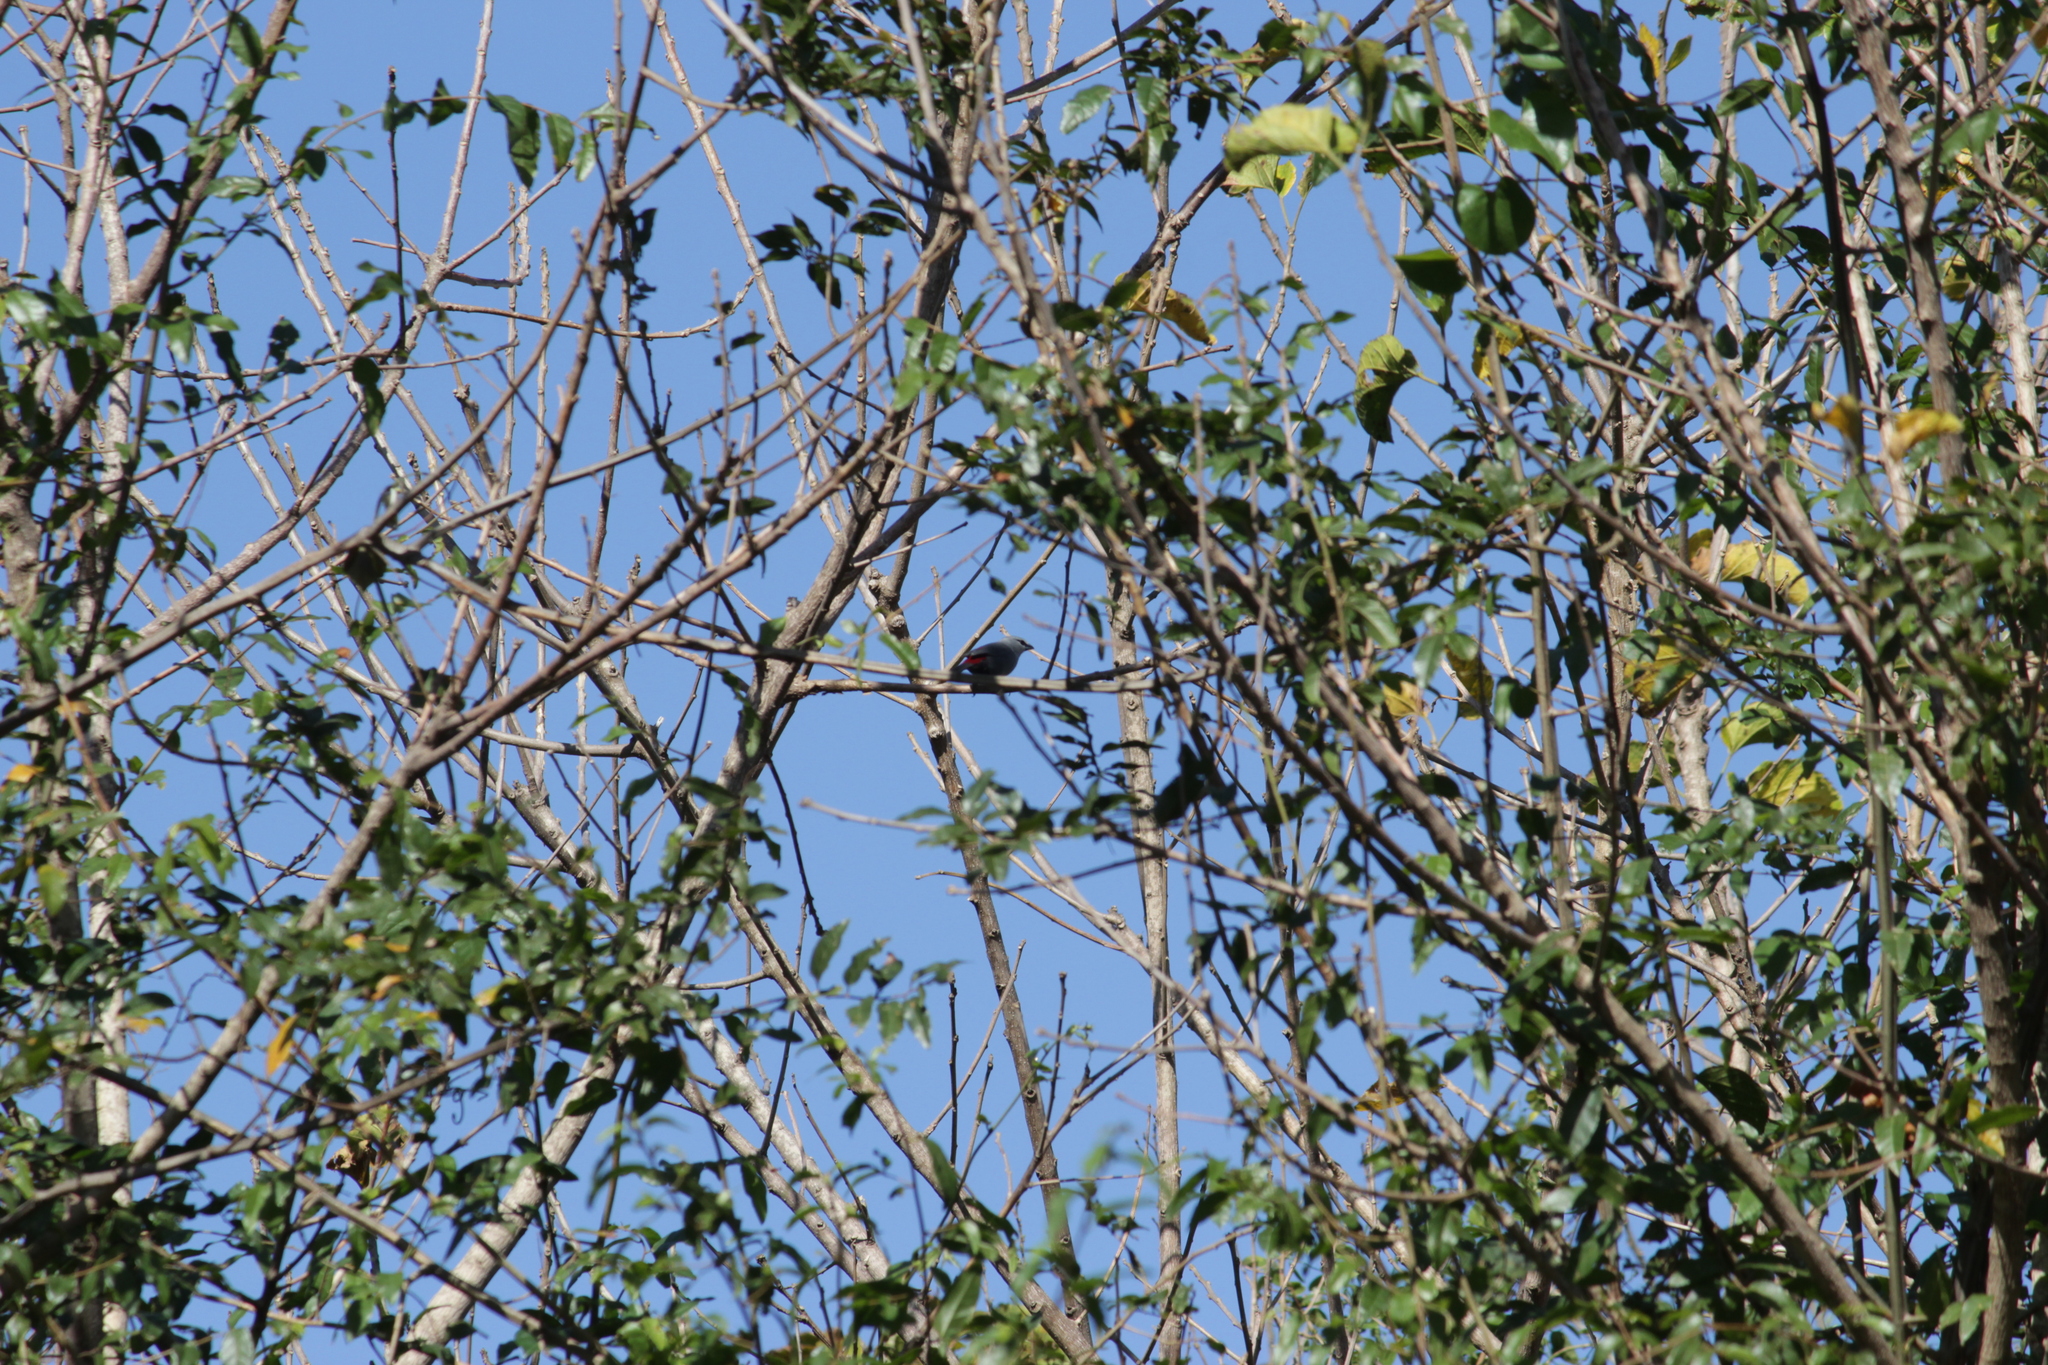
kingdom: Animalia
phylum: Chordata
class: Aves
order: Passeriformes
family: Estrildidae
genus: Estrilda
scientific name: Estrilda perreini
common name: Grey waxbill
